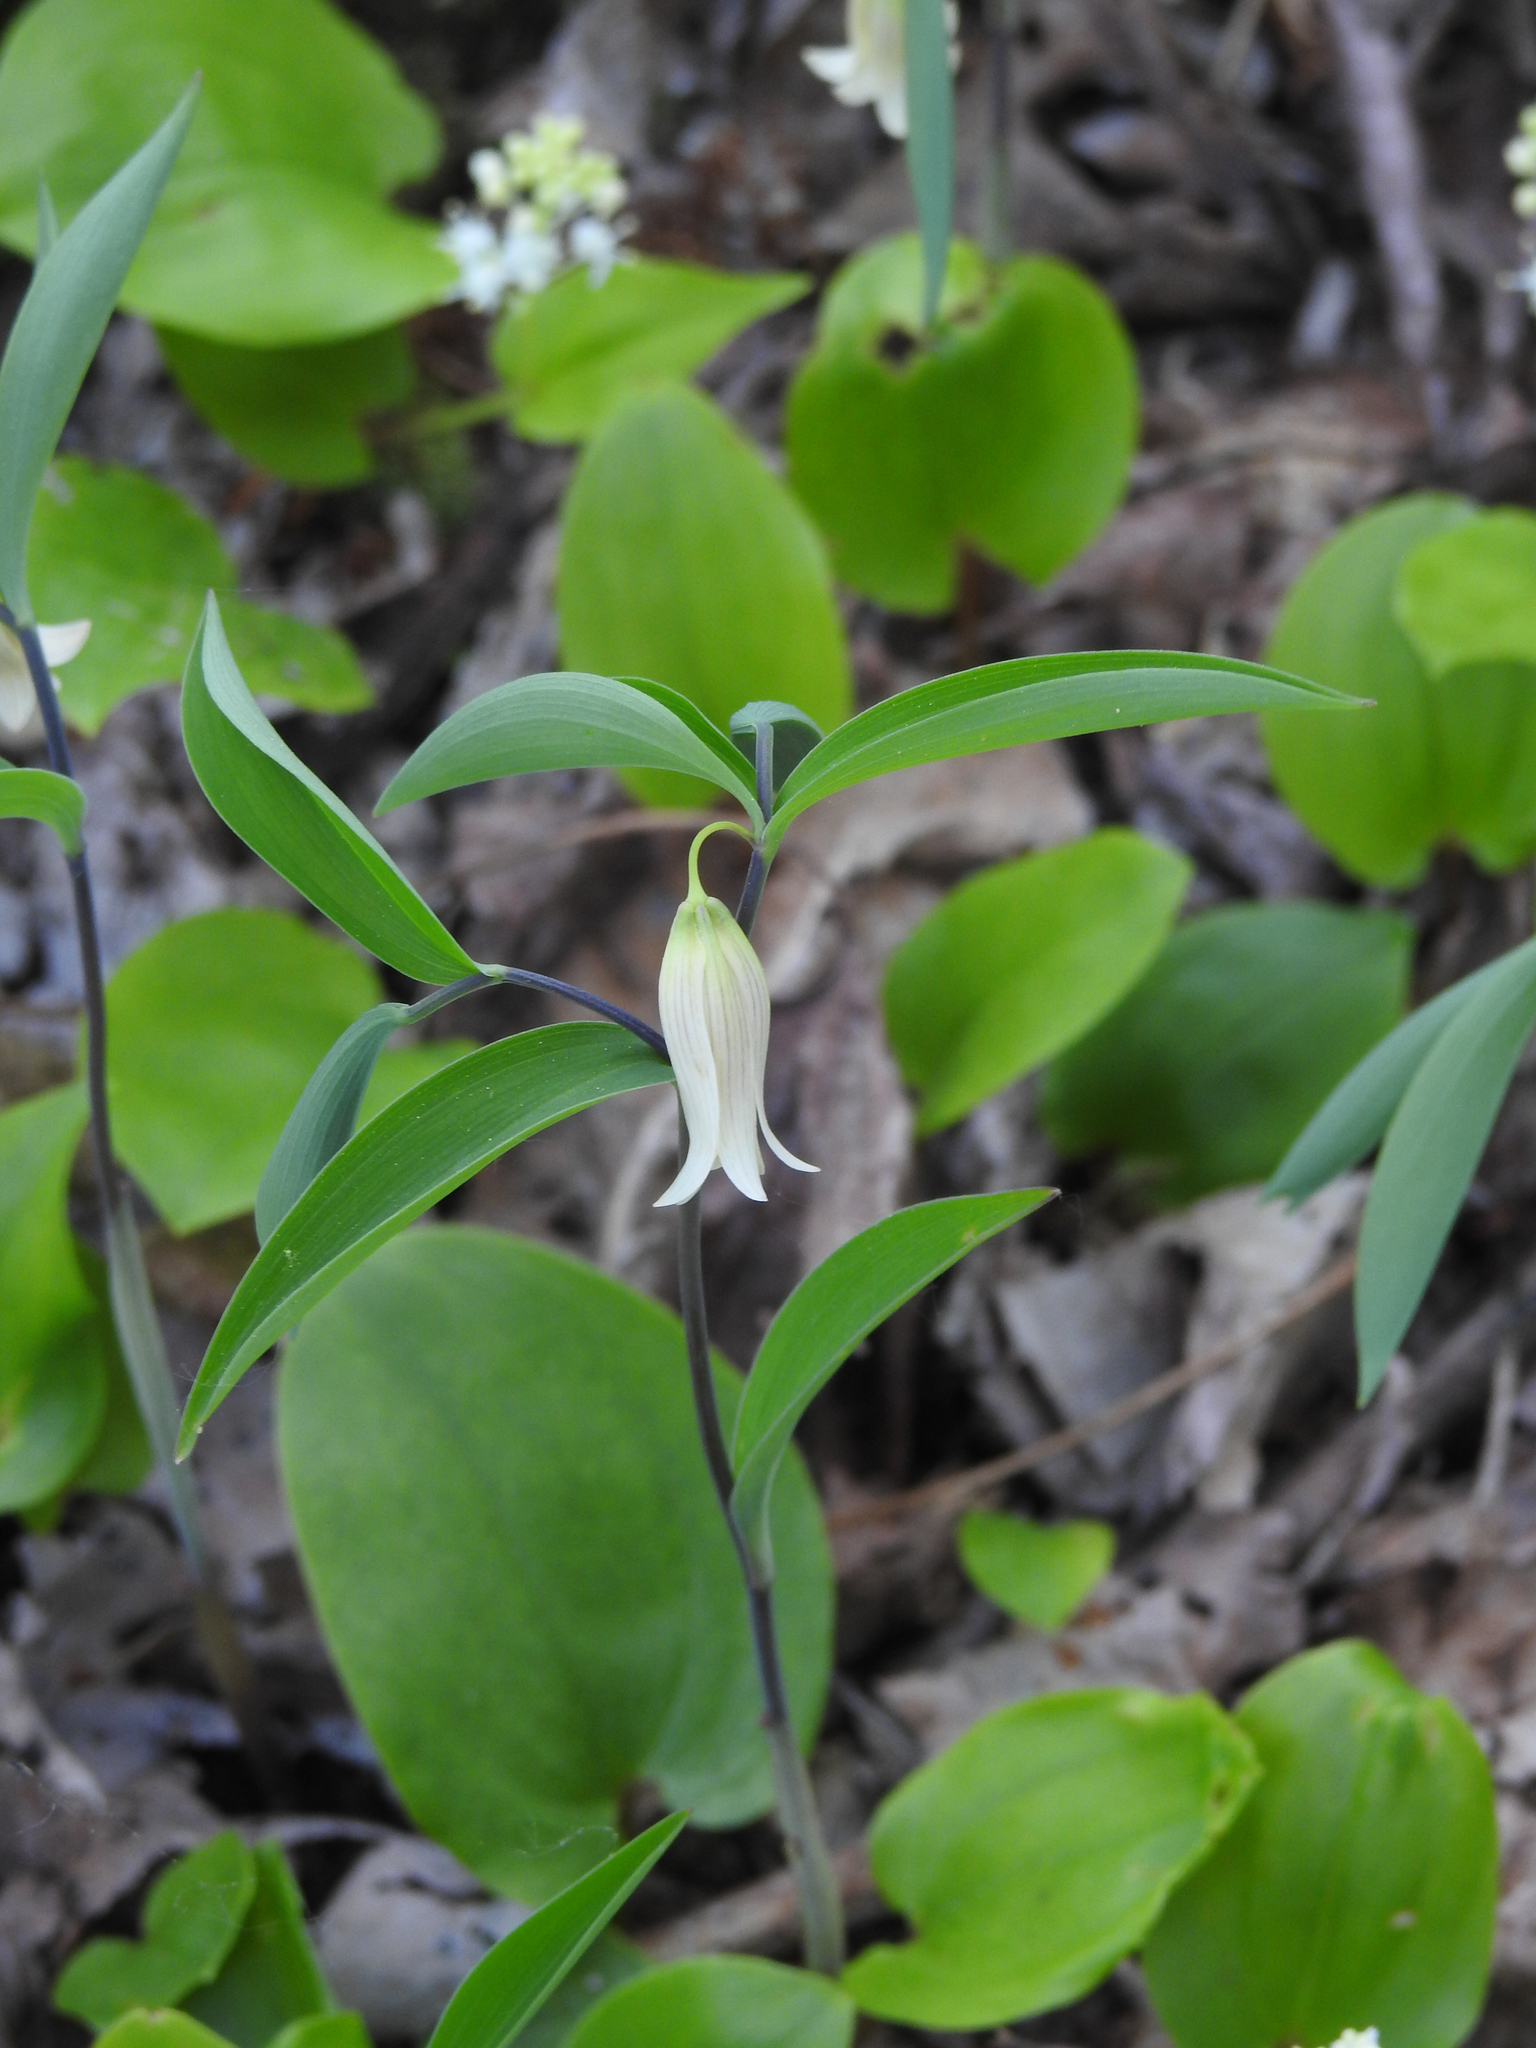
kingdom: Plantae
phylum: Tracheophyta
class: Liliopsida
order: Liliales
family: Colchicaceae
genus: Uvularia
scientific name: Uvularia sessilifolia
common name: Straw-lily
